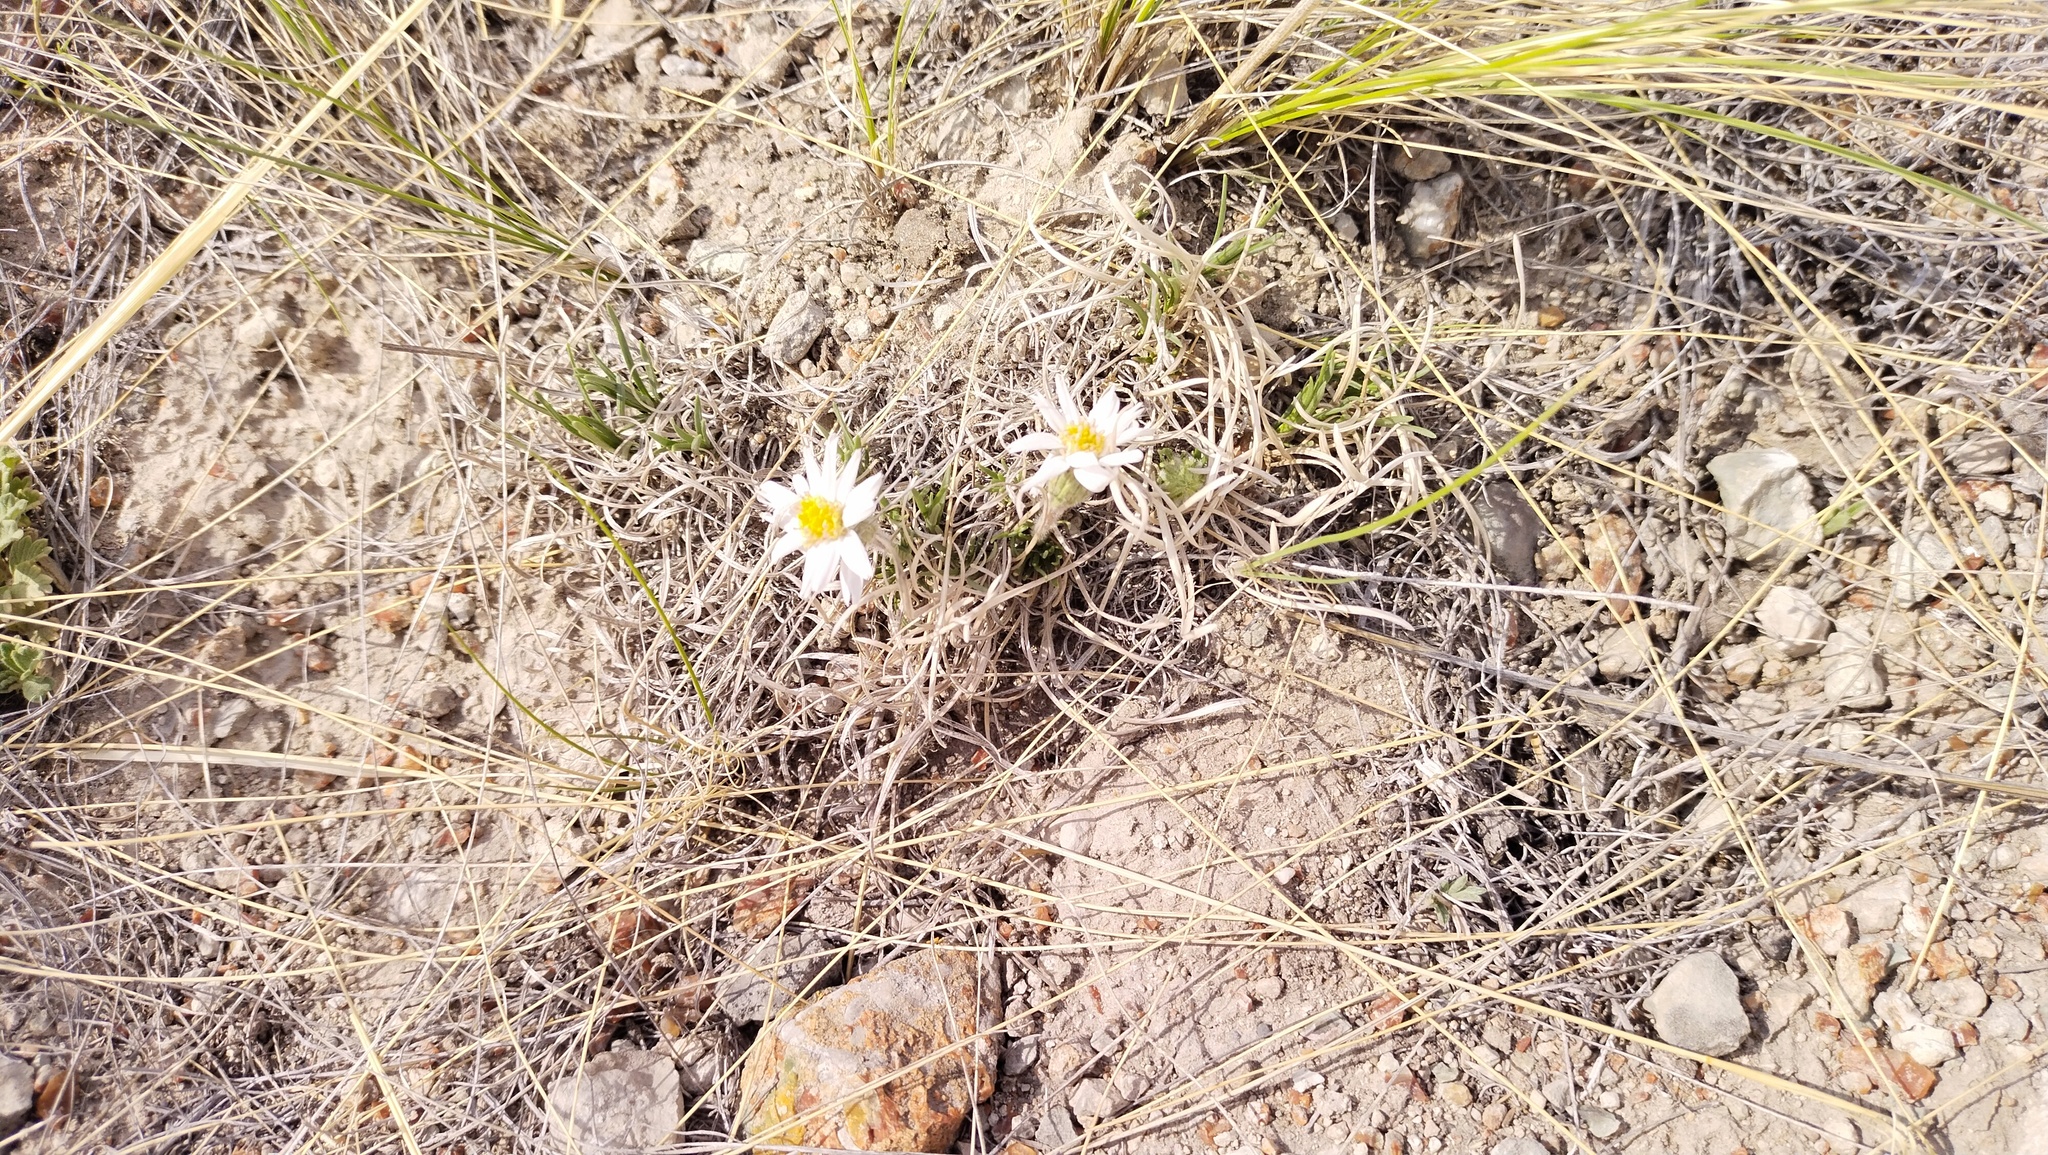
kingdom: Plantae
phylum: Tracheophyta
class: Magnoliopsida
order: Asterales
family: Asteraceae
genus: Arctogeron
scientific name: Arctogeron gramineum
